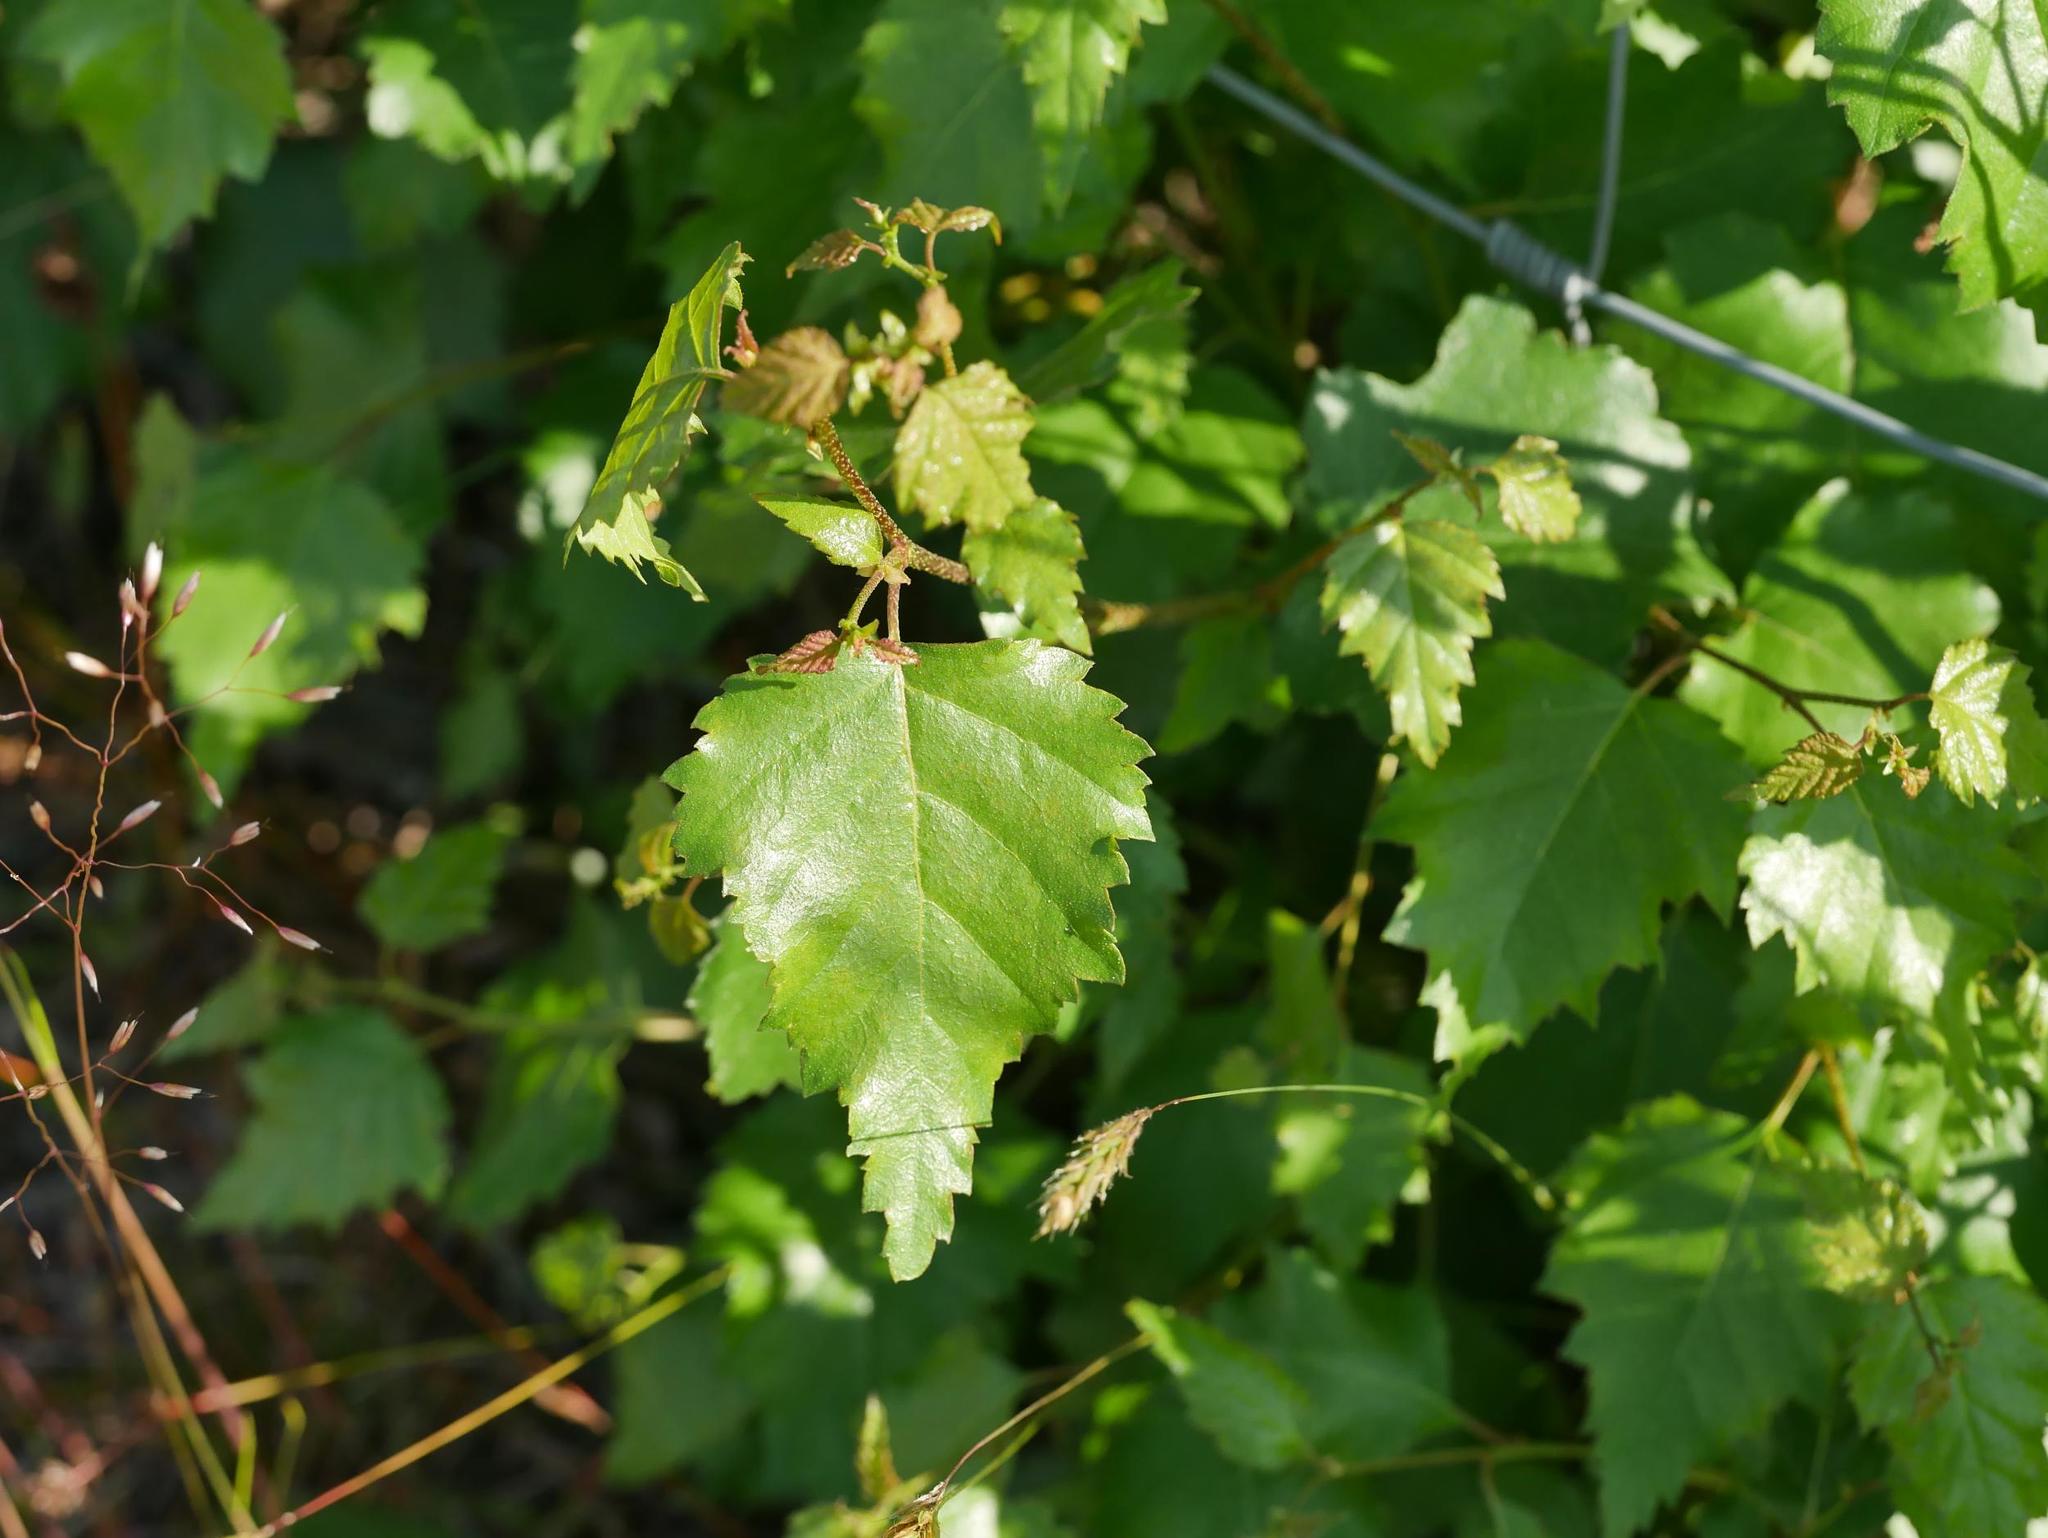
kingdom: Plantae
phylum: Tracheophyta
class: Magnoliopsida
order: Fagales
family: Betulaceae
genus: Betula
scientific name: Betula pendula
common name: Silver birch
